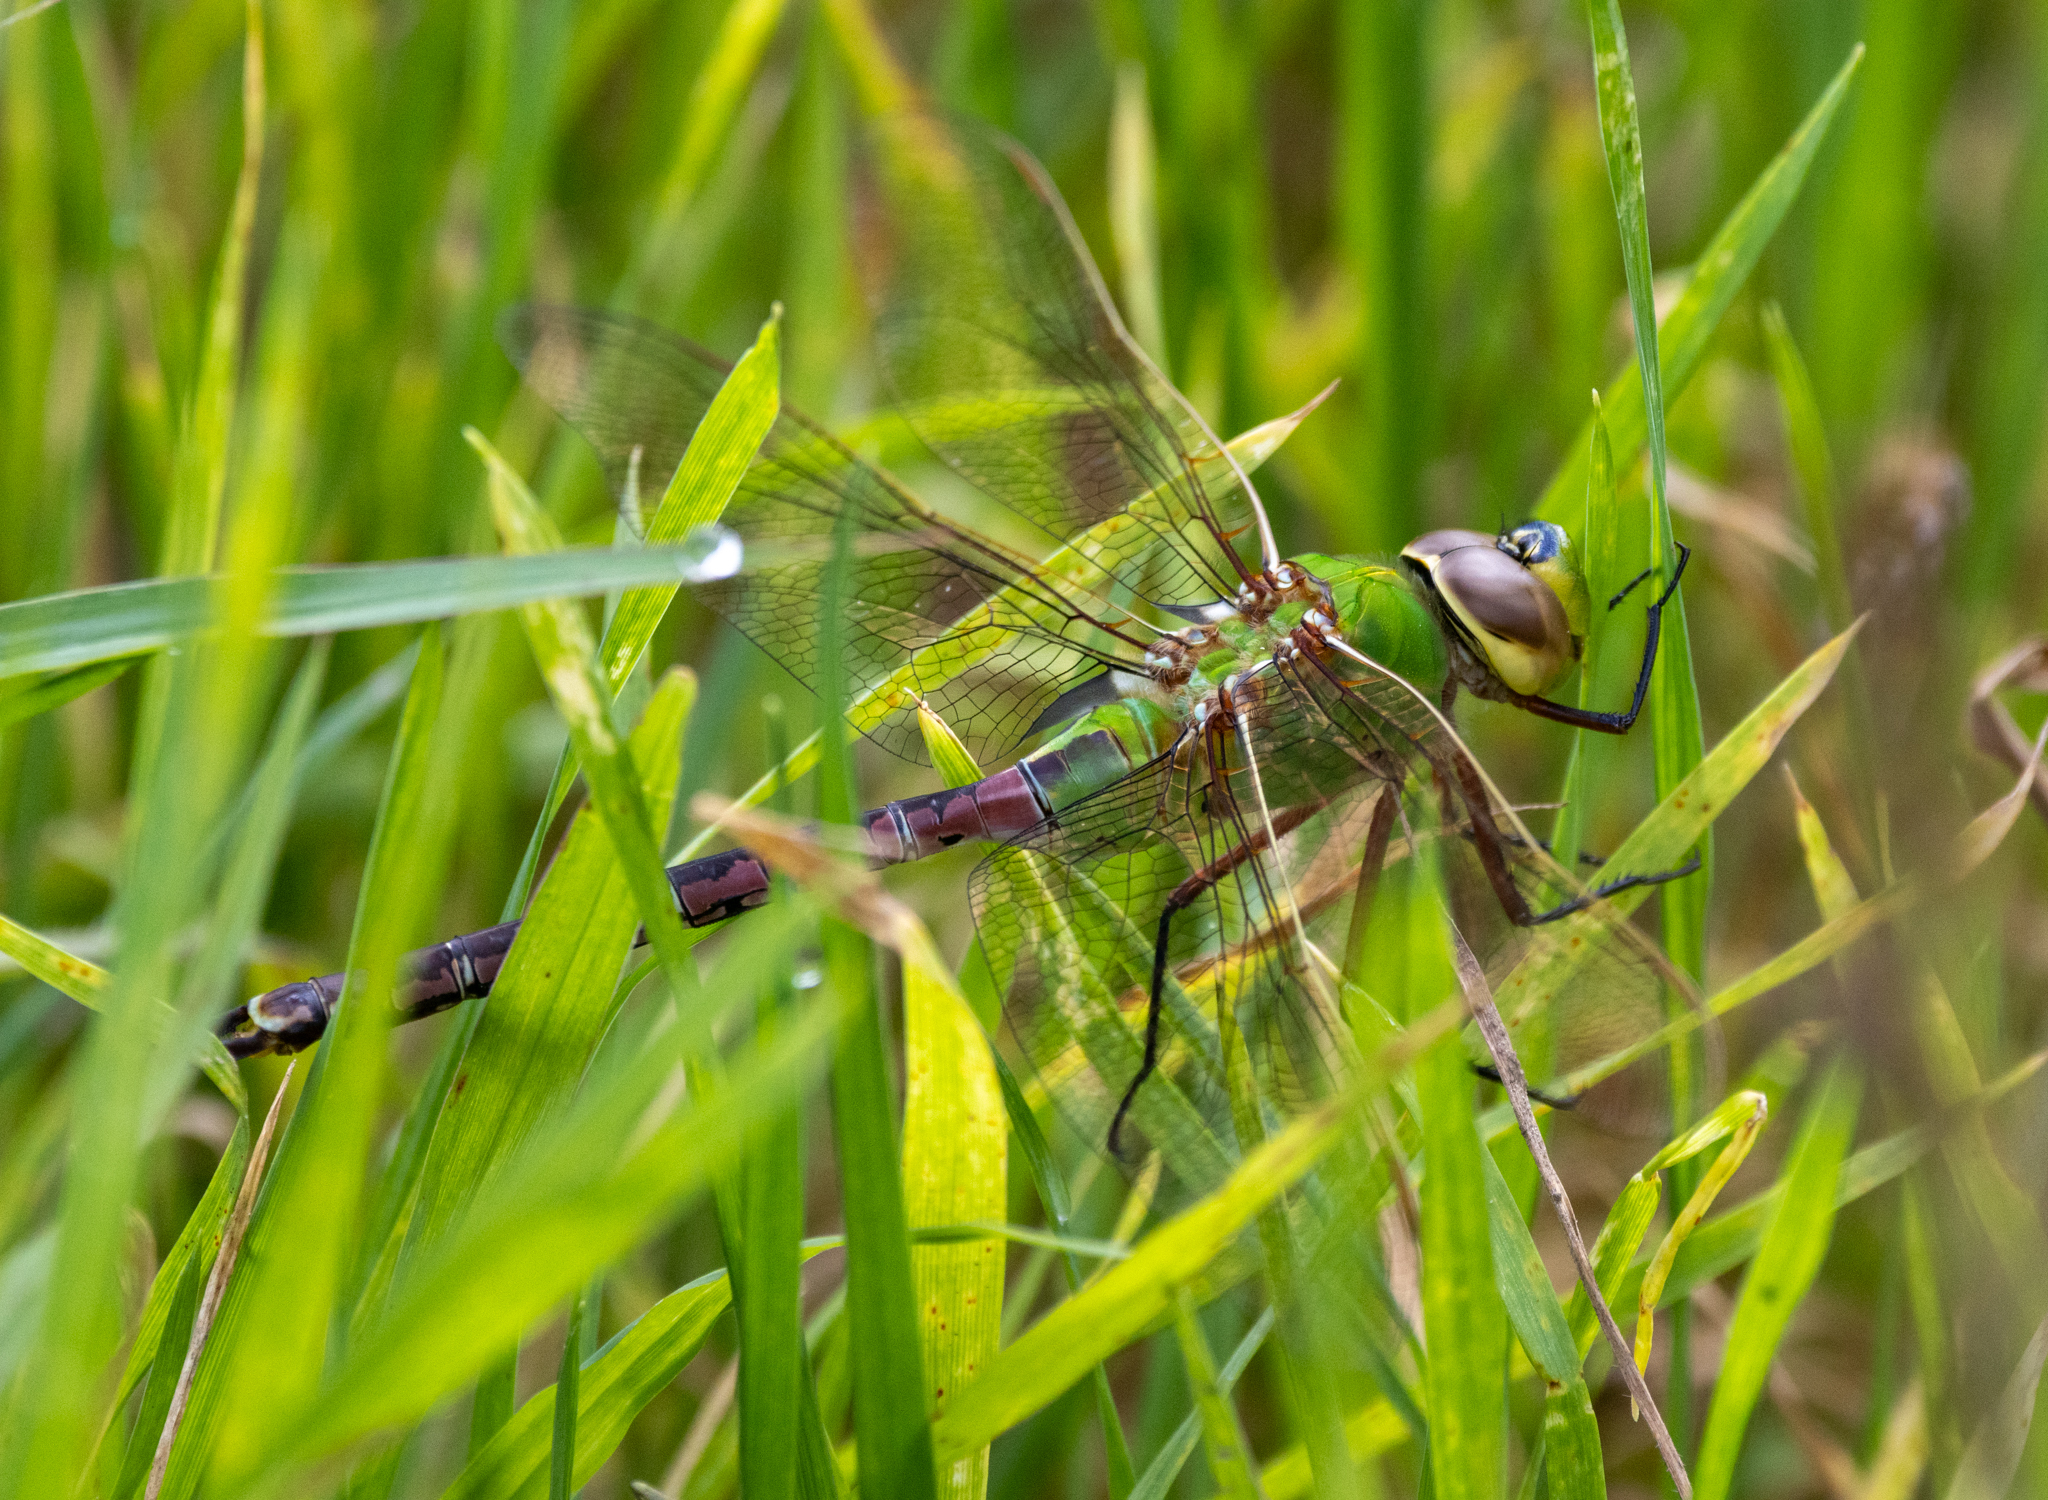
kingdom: Animalia
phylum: Arthropoda
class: Insecta
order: Odonata
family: Aeshnidae
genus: Anax
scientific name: Anax junius
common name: Common green darner
